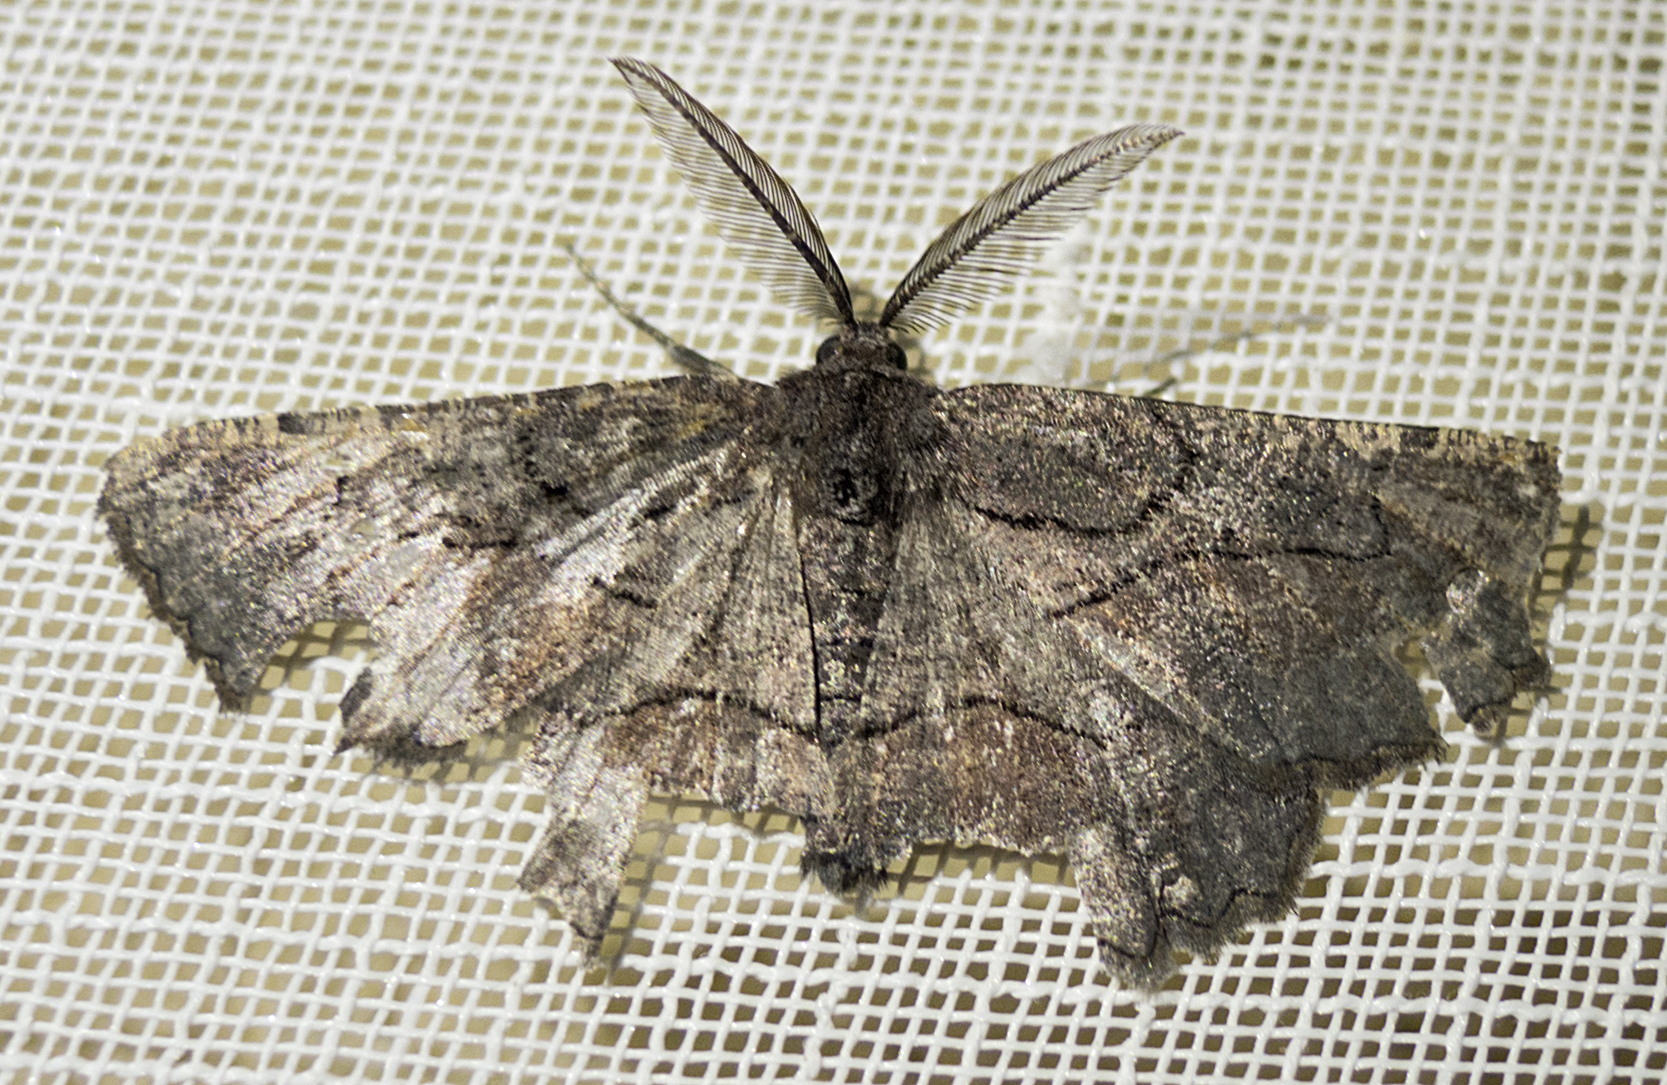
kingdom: Animalia
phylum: Arthropoda
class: Insecta
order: Lepidoptera
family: Geometridae
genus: Nychiodes
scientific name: Nychiodes waltheri
